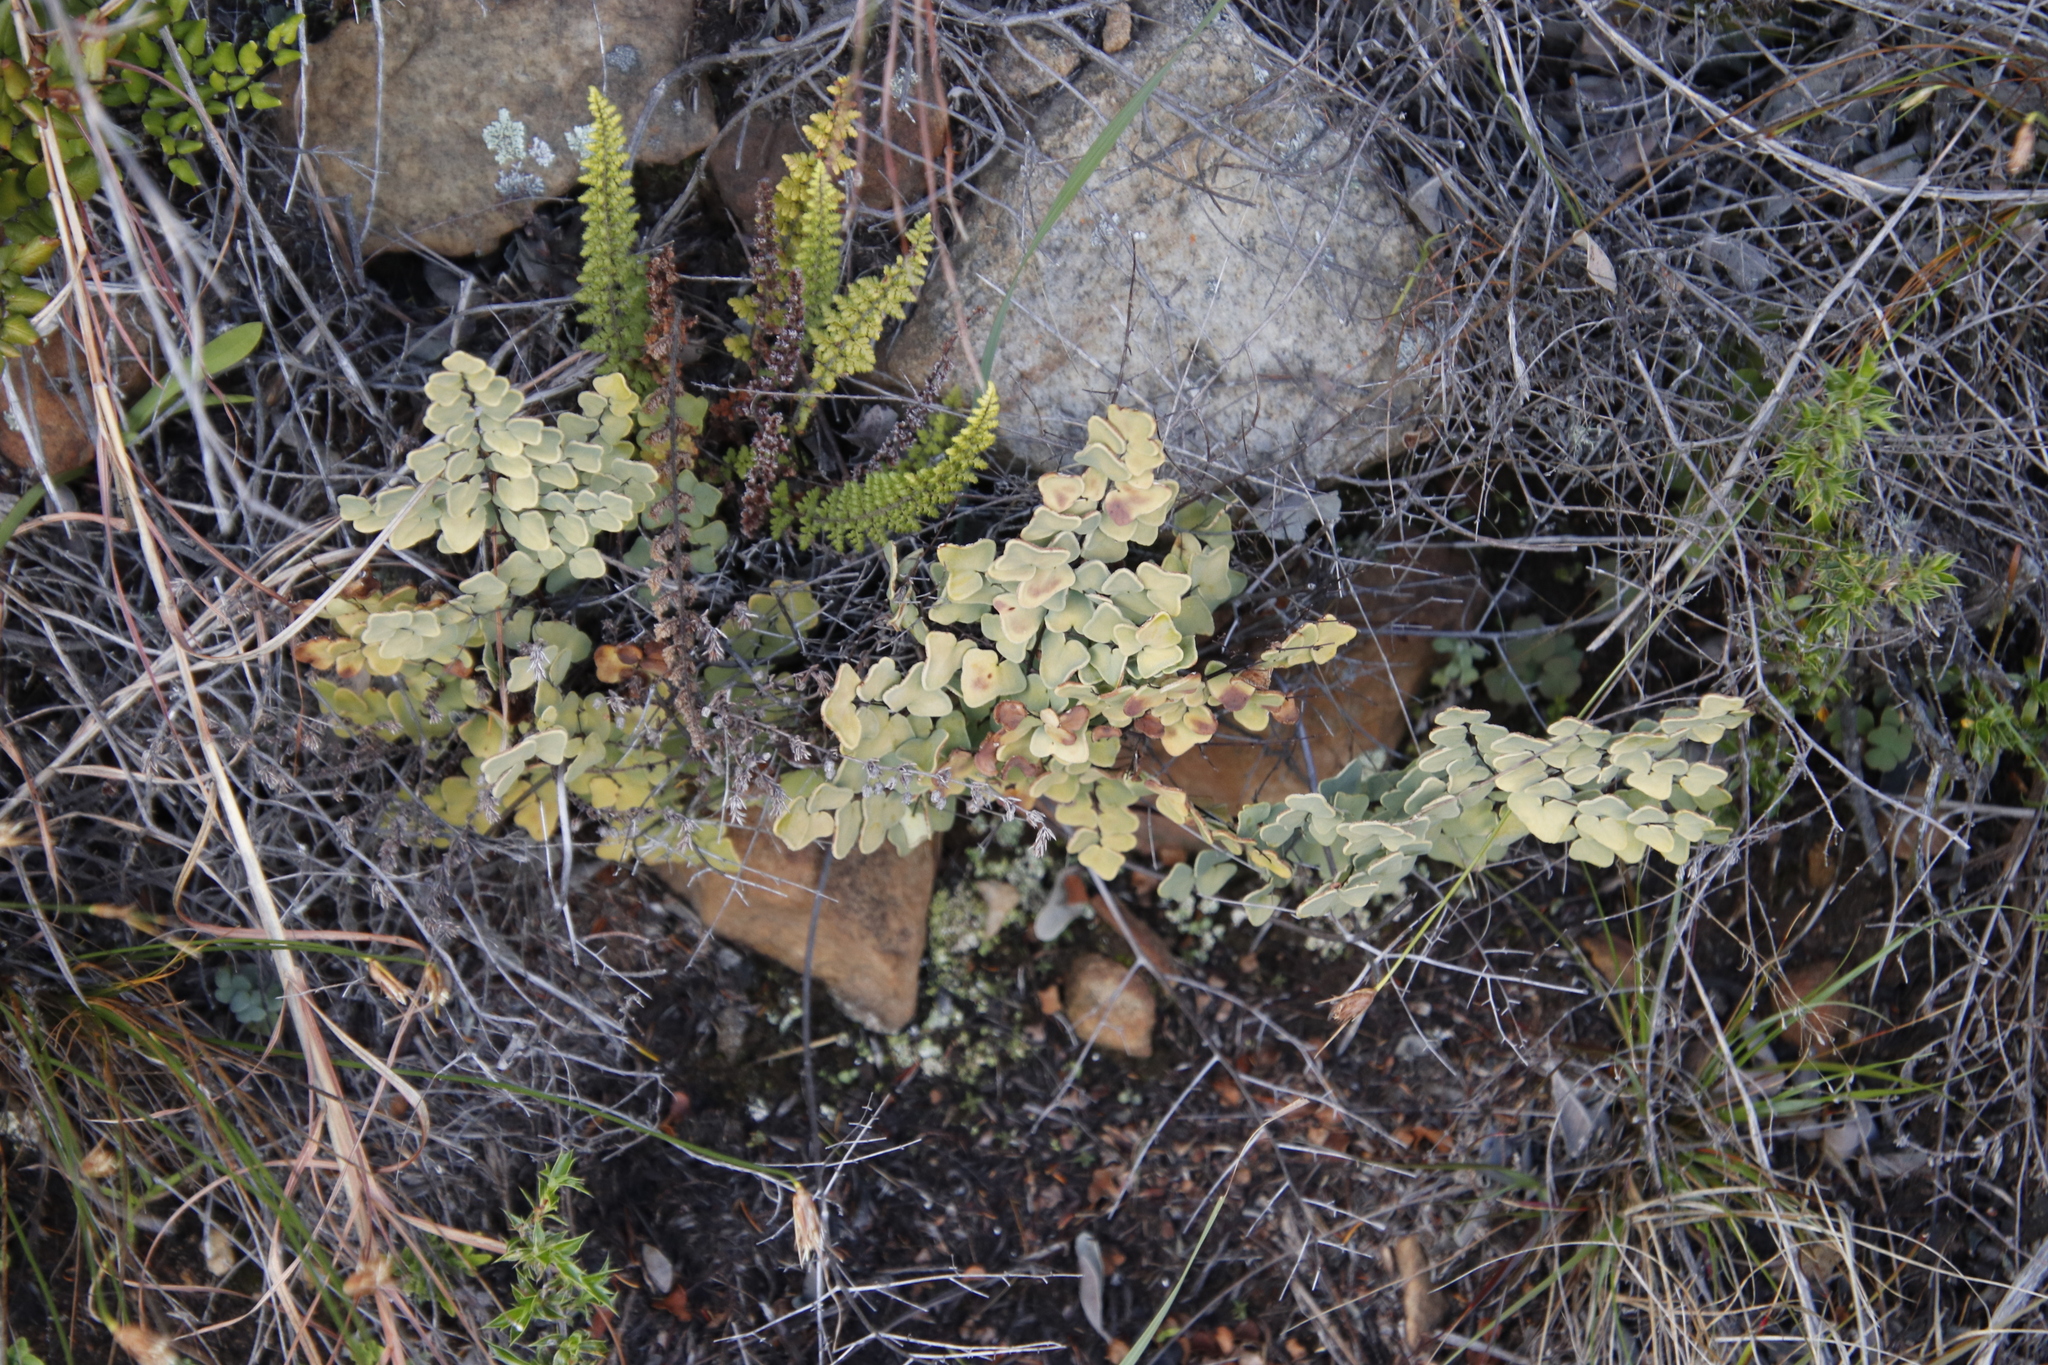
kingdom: Plantae
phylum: Tracheophyta
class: Polypodiopsida
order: Polypodiales
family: Pteridaceae
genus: Pellaea
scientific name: Pellaea calomelanos
